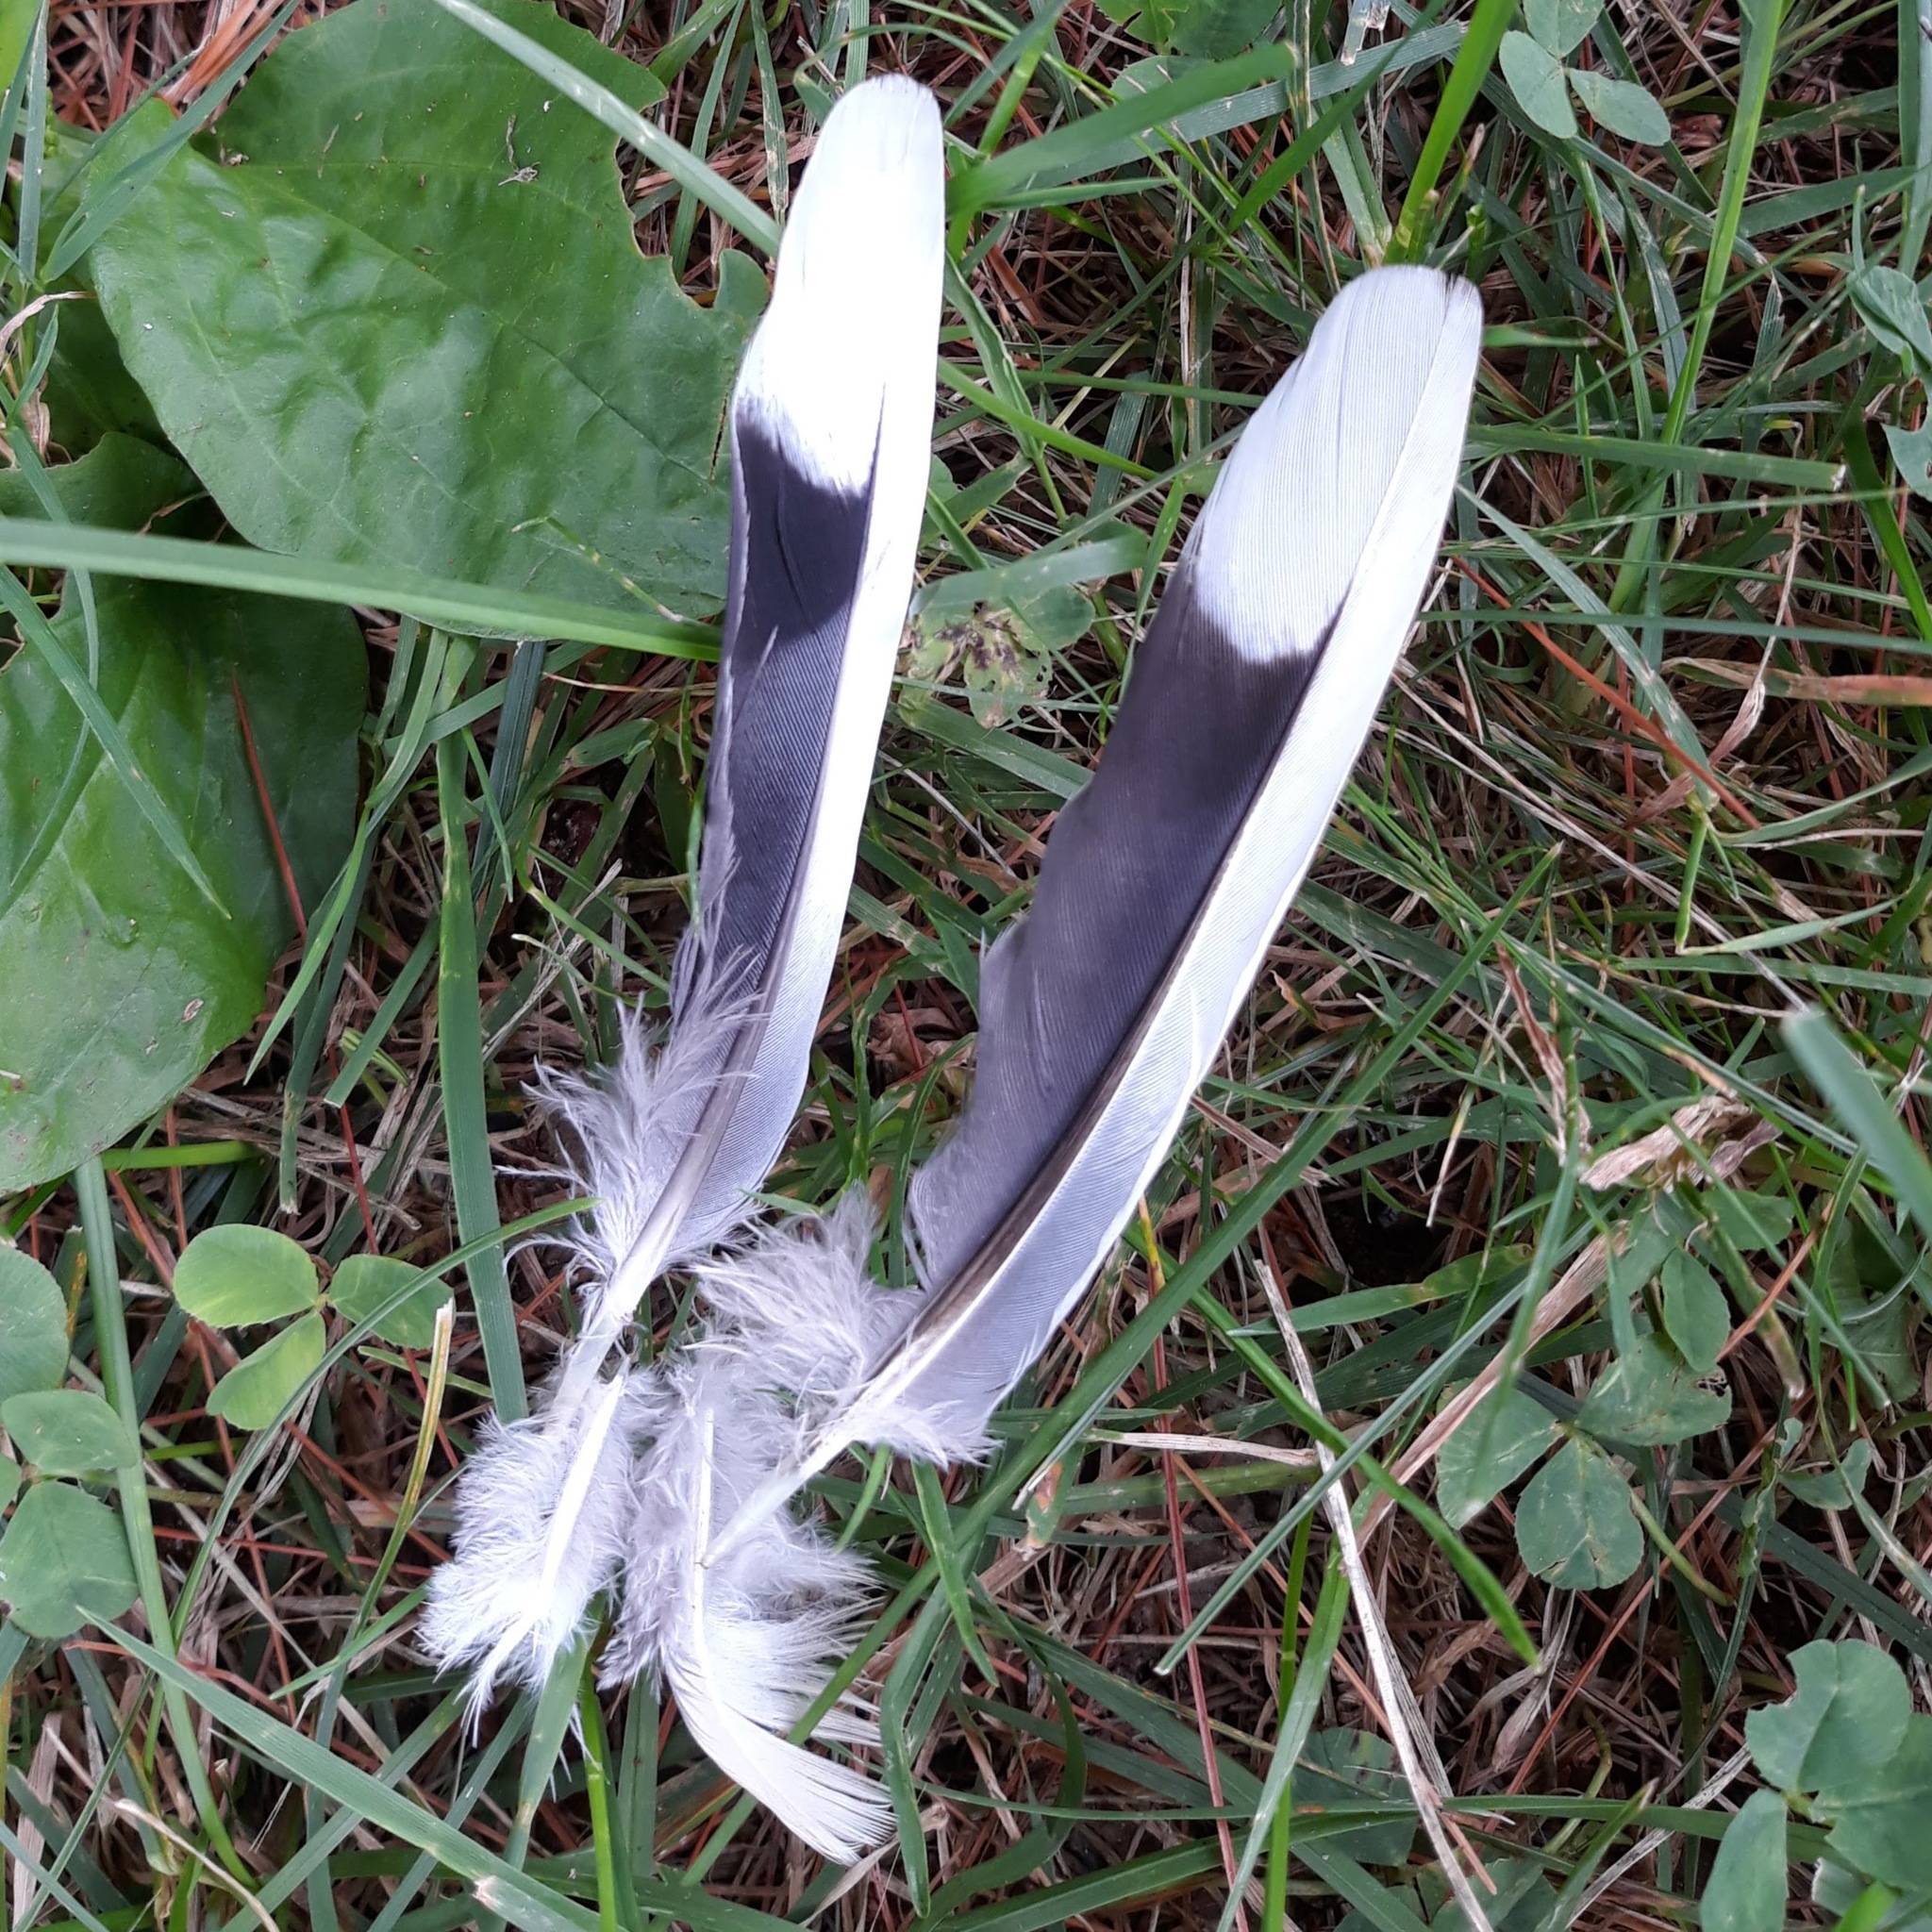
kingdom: Animalia
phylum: Chordata
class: Aves
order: Columbiformes
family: Columbidae
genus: Zenaida
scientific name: Zenaida macroura
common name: Mourning dove
